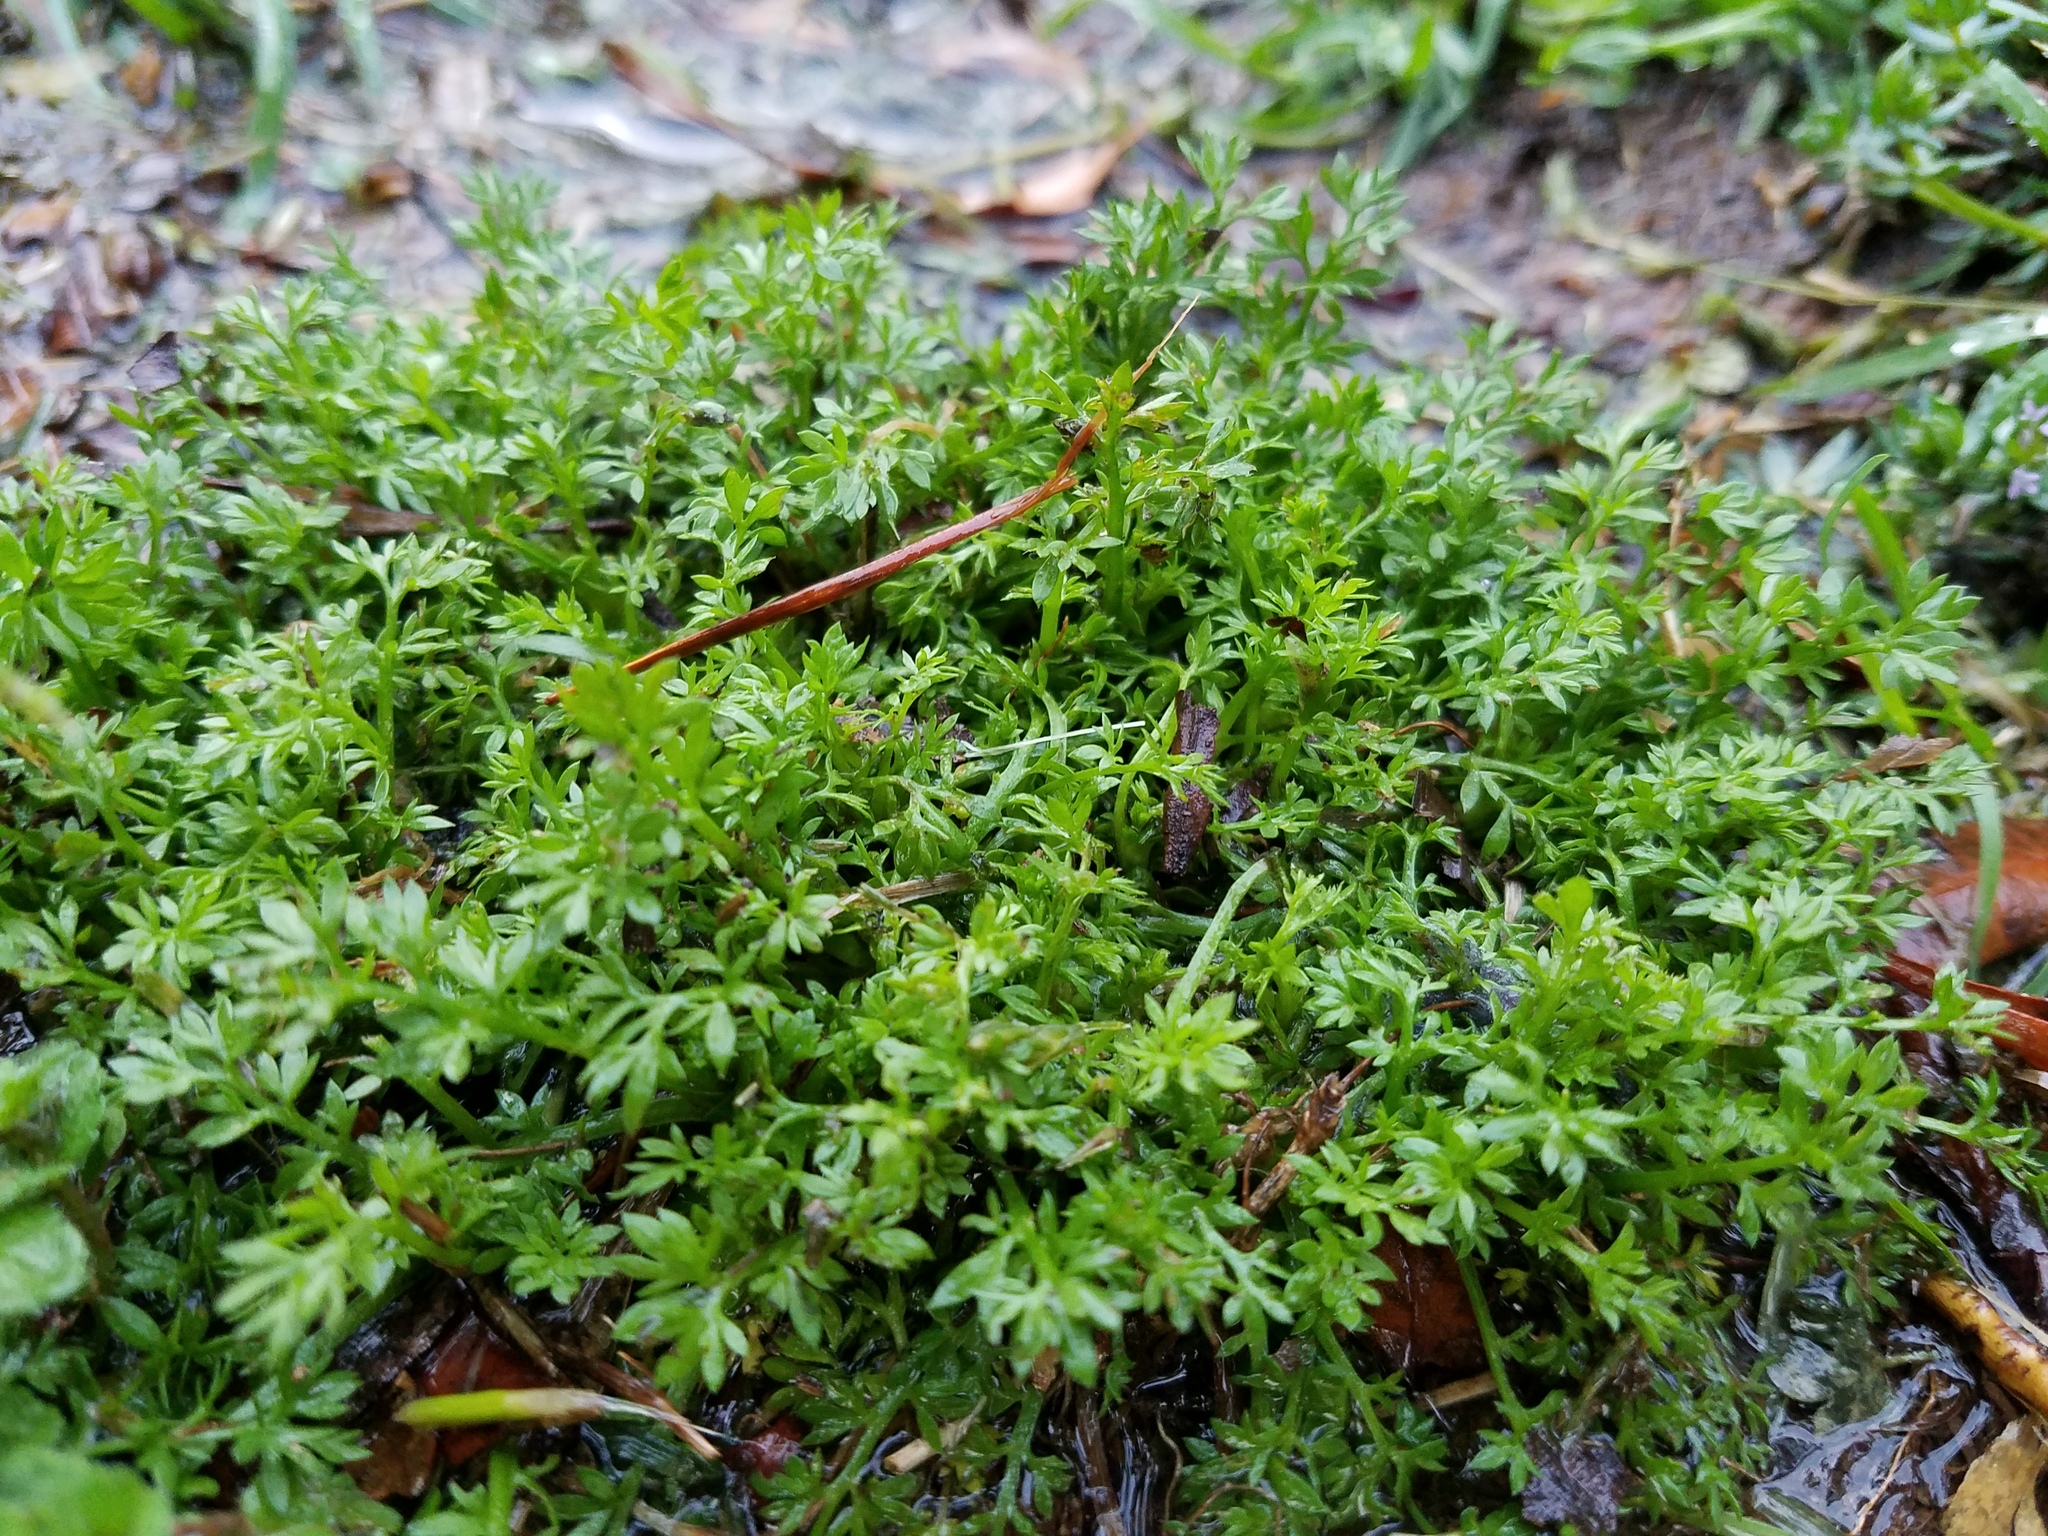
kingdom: Plantae
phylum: Tracheophyta
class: Magnoliopsida
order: Asterales
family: Asteraceae
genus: Soliva
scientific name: Soliva sessilis
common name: Field burrweed
